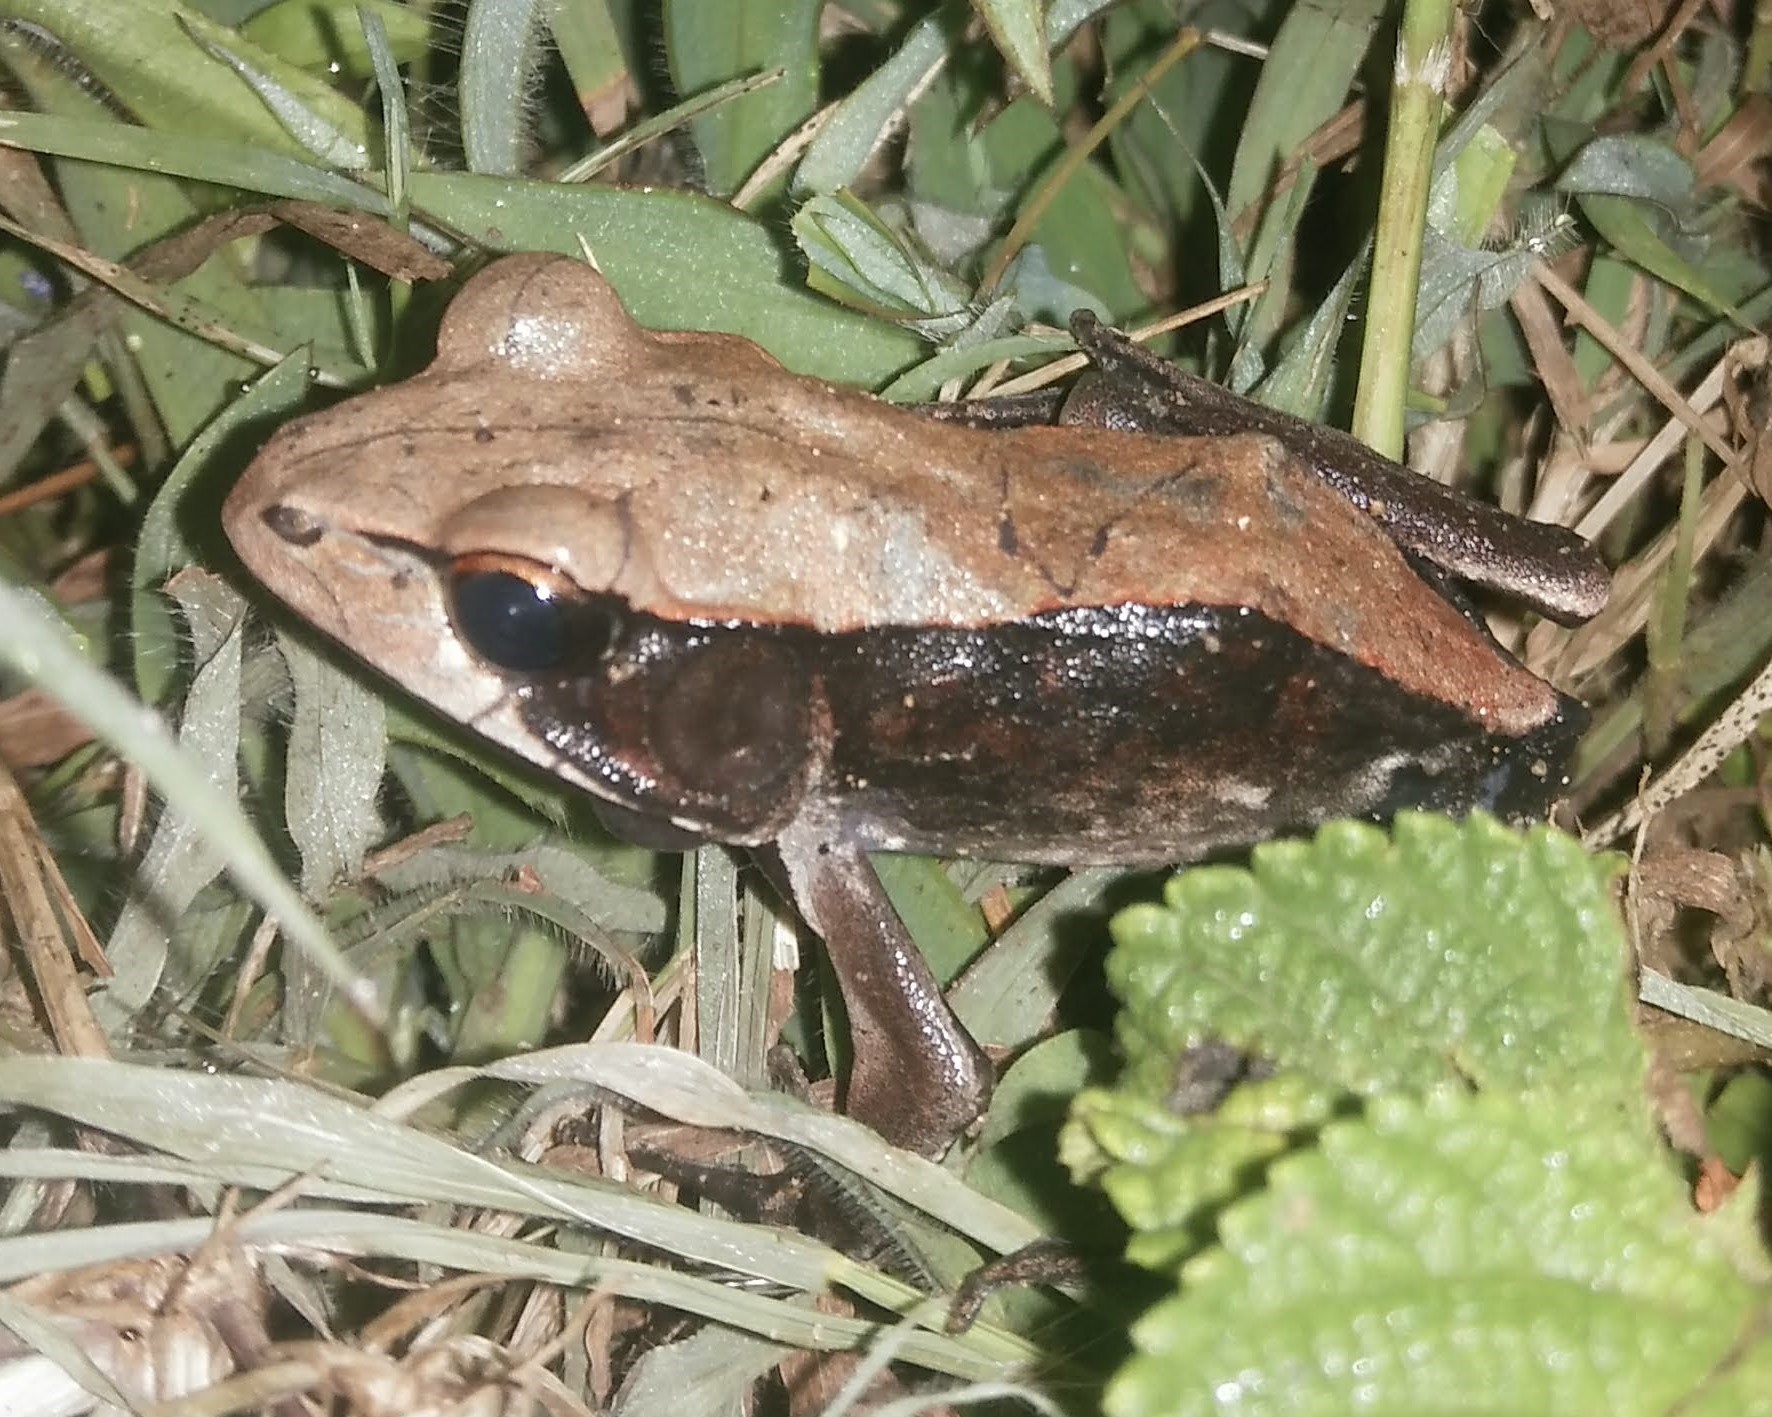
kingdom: Animalia
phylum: Chordata
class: Amphibia
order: Anura
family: Ranidae
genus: Clinotarsus
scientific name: Clinotarsus curtipes
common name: Bicoloured frog
